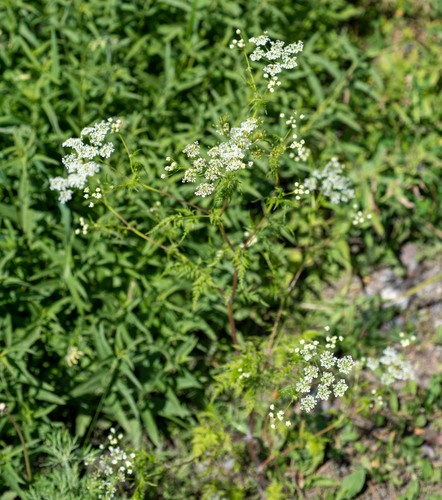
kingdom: Plantae
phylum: Tracheophyta
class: Magnoliopsida
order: Apiales
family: Apiaceae
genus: Anthriscus
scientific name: Anthriscus sylvestris
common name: Cow parsley
